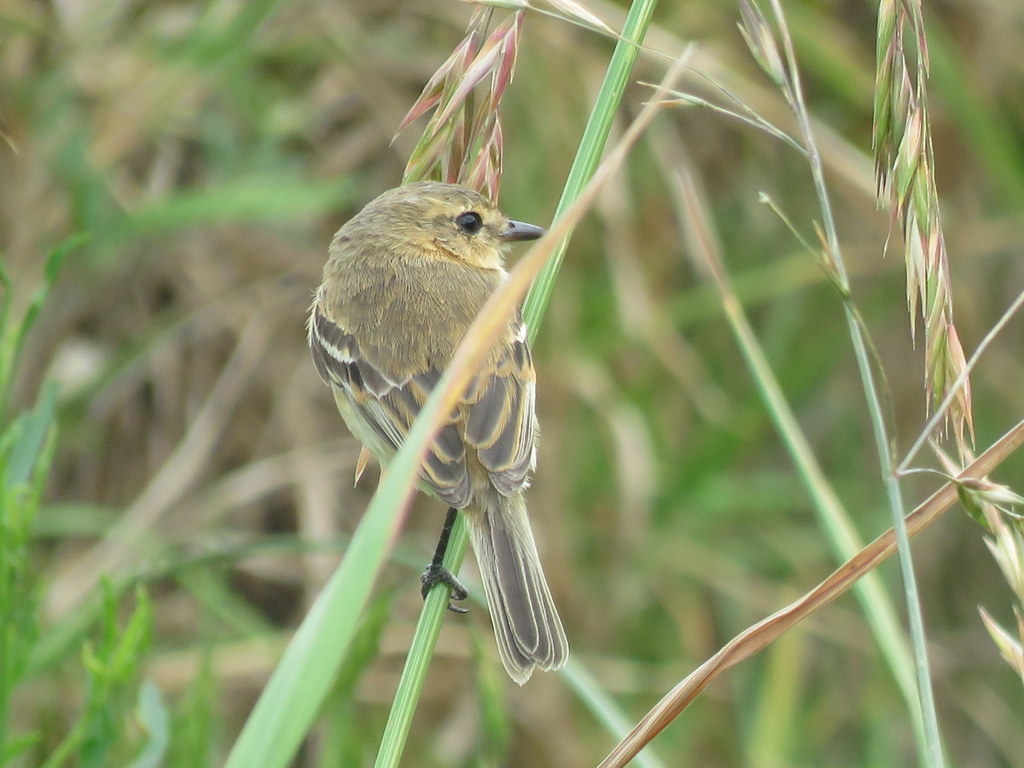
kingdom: Animalia
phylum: Chordata
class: Aves
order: Passeriformes
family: Tyrannidae
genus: Polystictus
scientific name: Polystictus pectoralis
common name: Bearded tachuri
